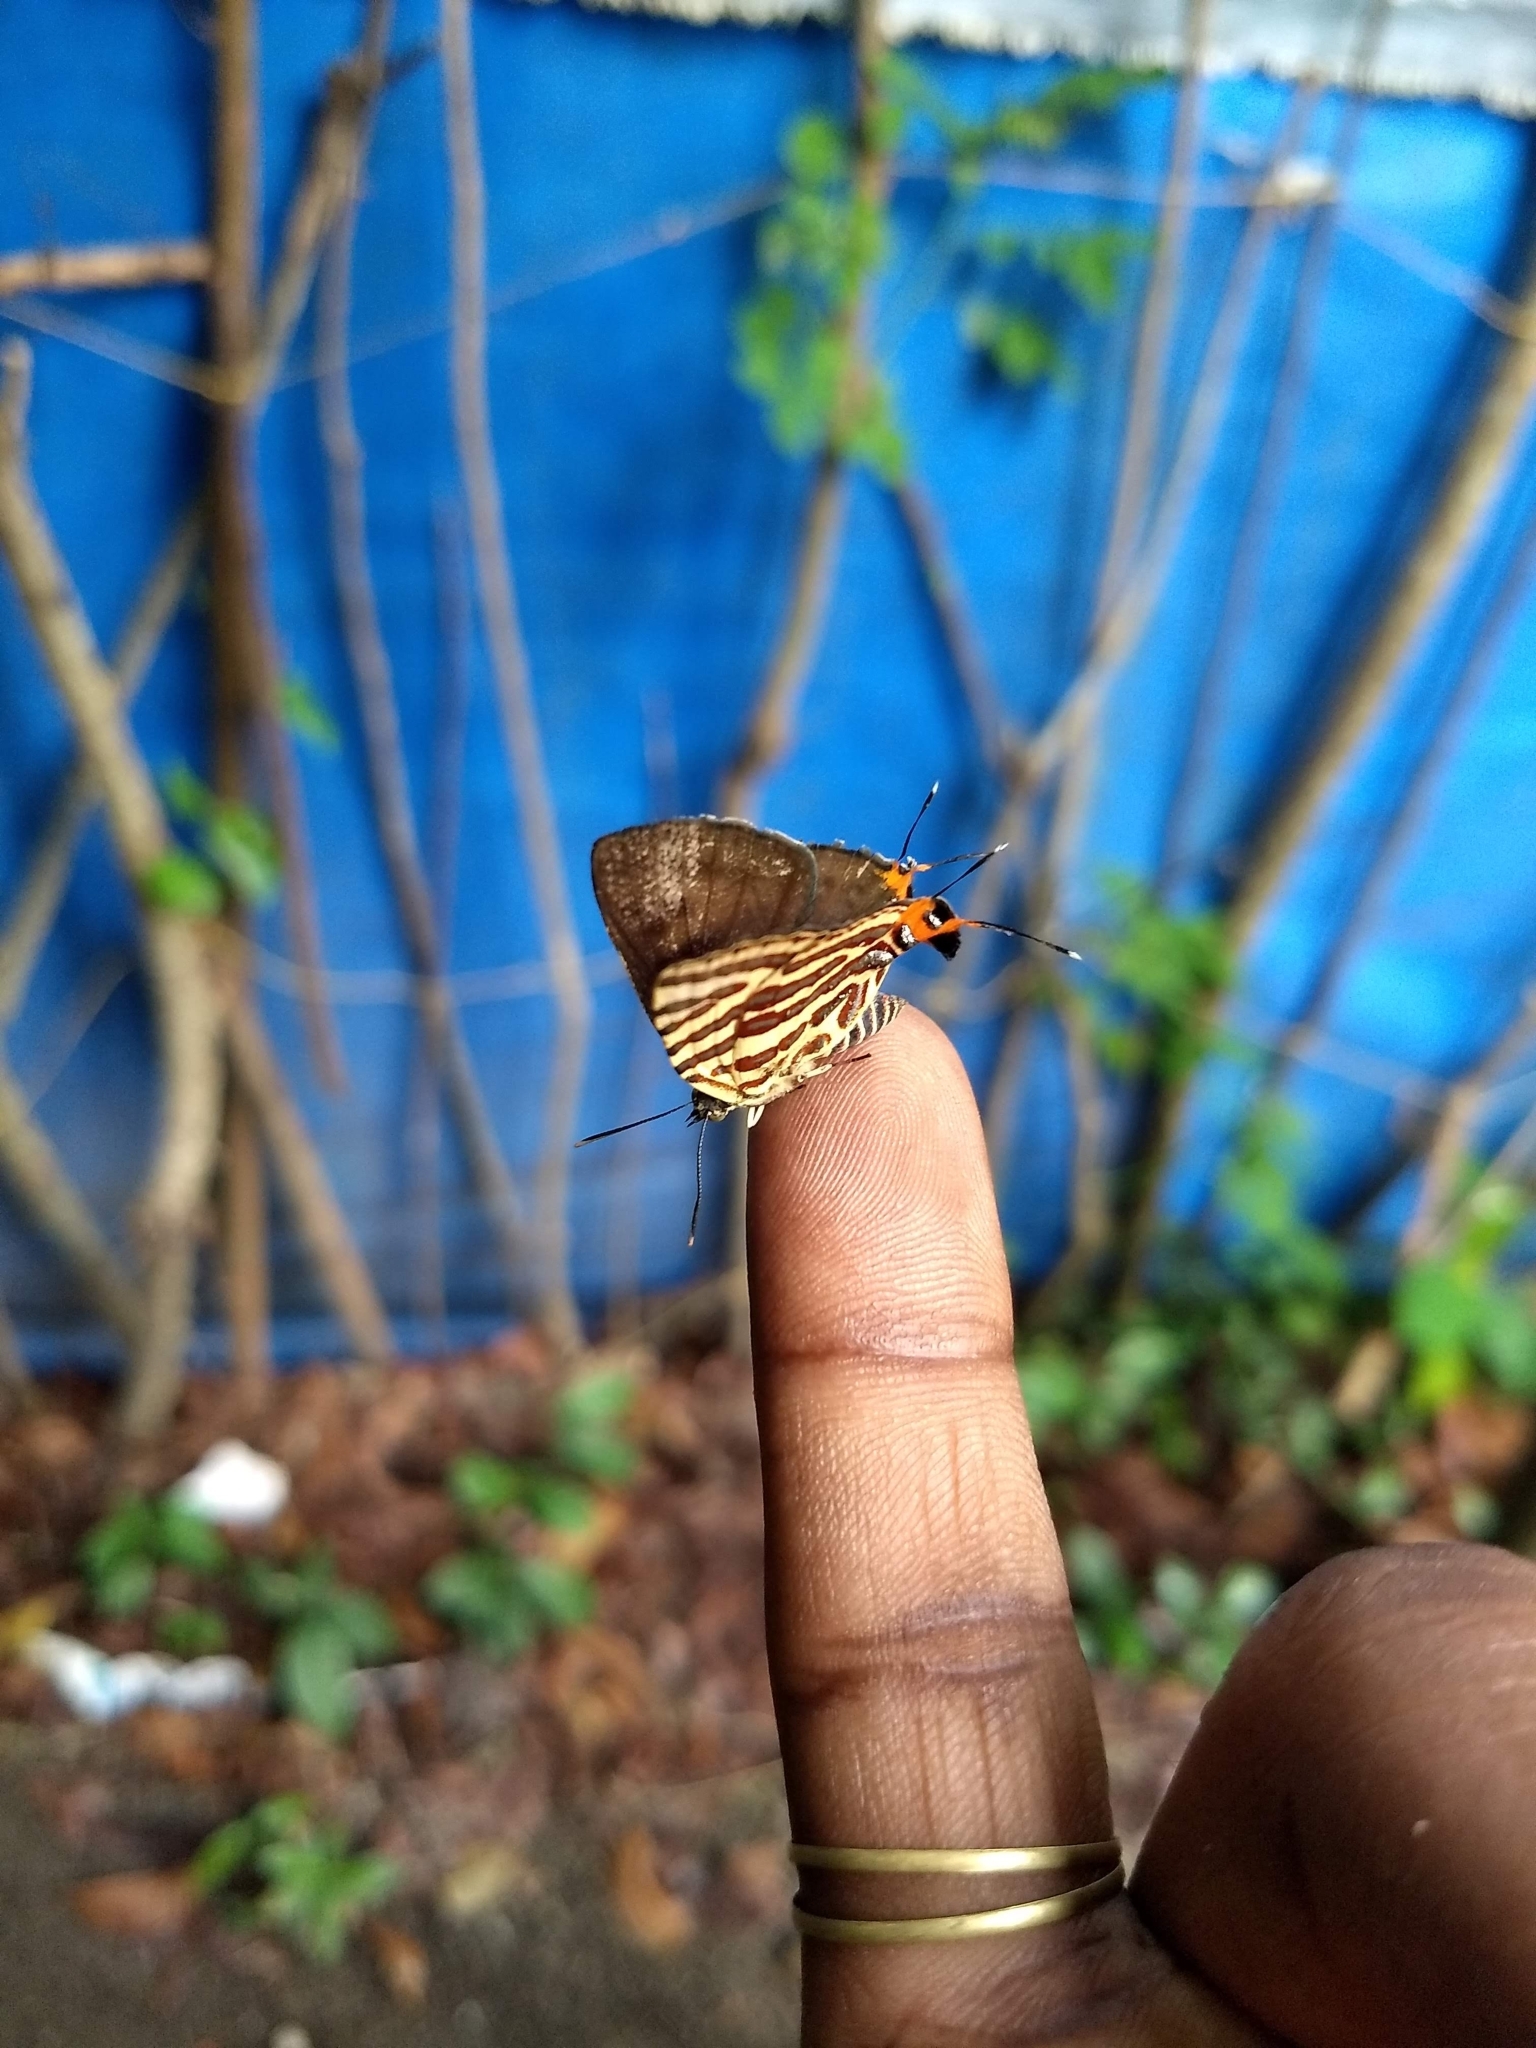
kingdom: Animalia
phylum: Arthropoda
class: Insecta
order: Lepidoptera
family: Lycaenidae
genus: Cigaritis
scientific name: Cigaritis lohita
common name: Long-banded silverline
